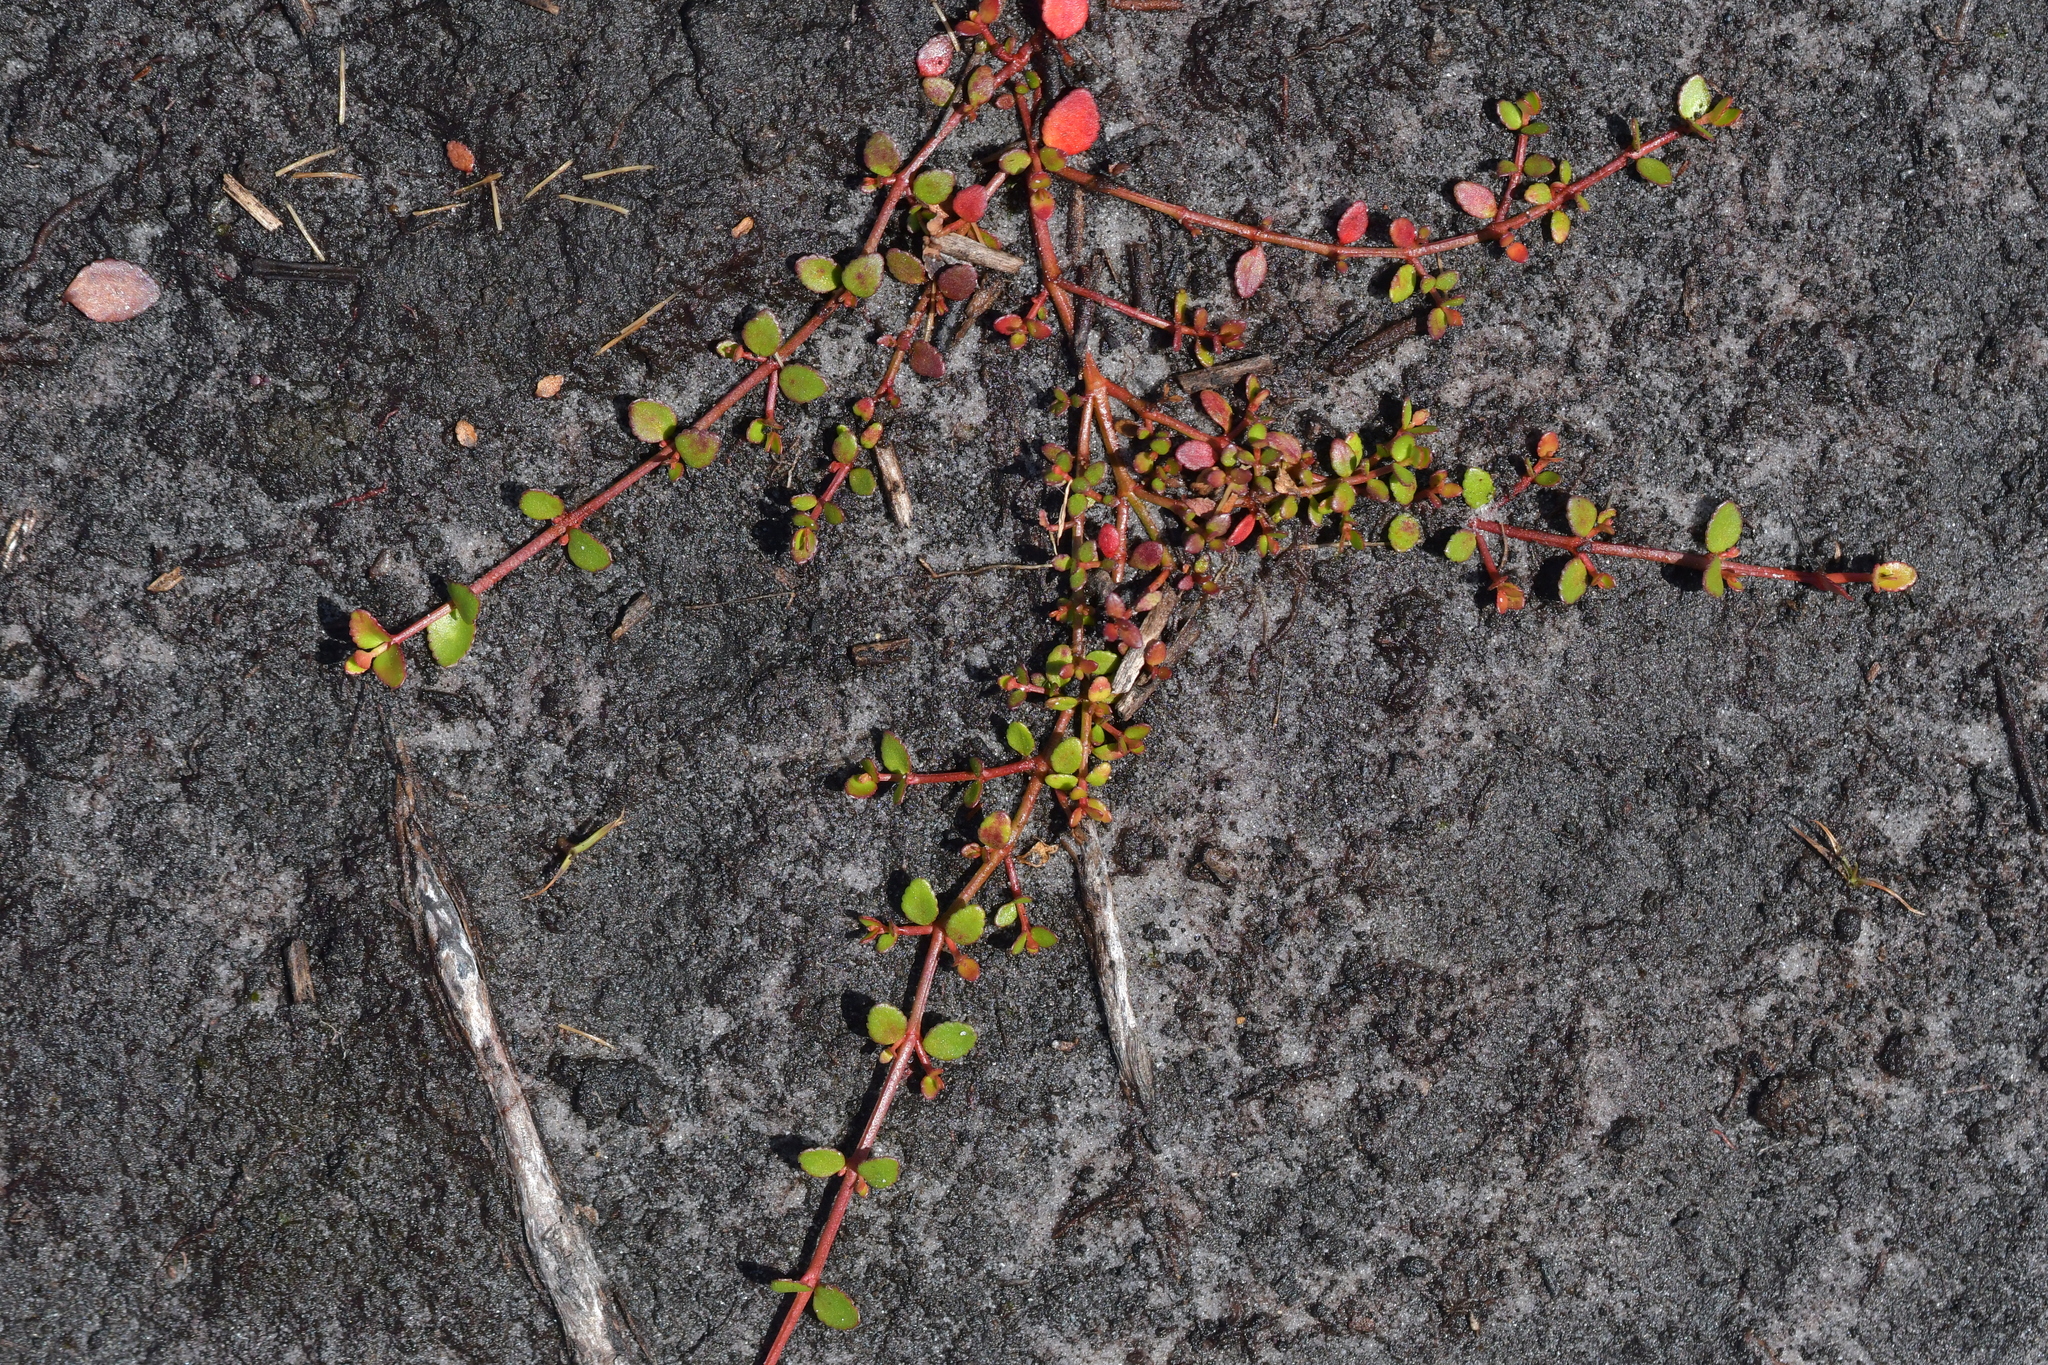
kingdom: Plantae
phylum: Tracheophyta
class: Magnoliopsida
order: Saxifragales
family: Haloragaceae
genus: Gonocarpus
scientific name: Gonocarpus micranthus
